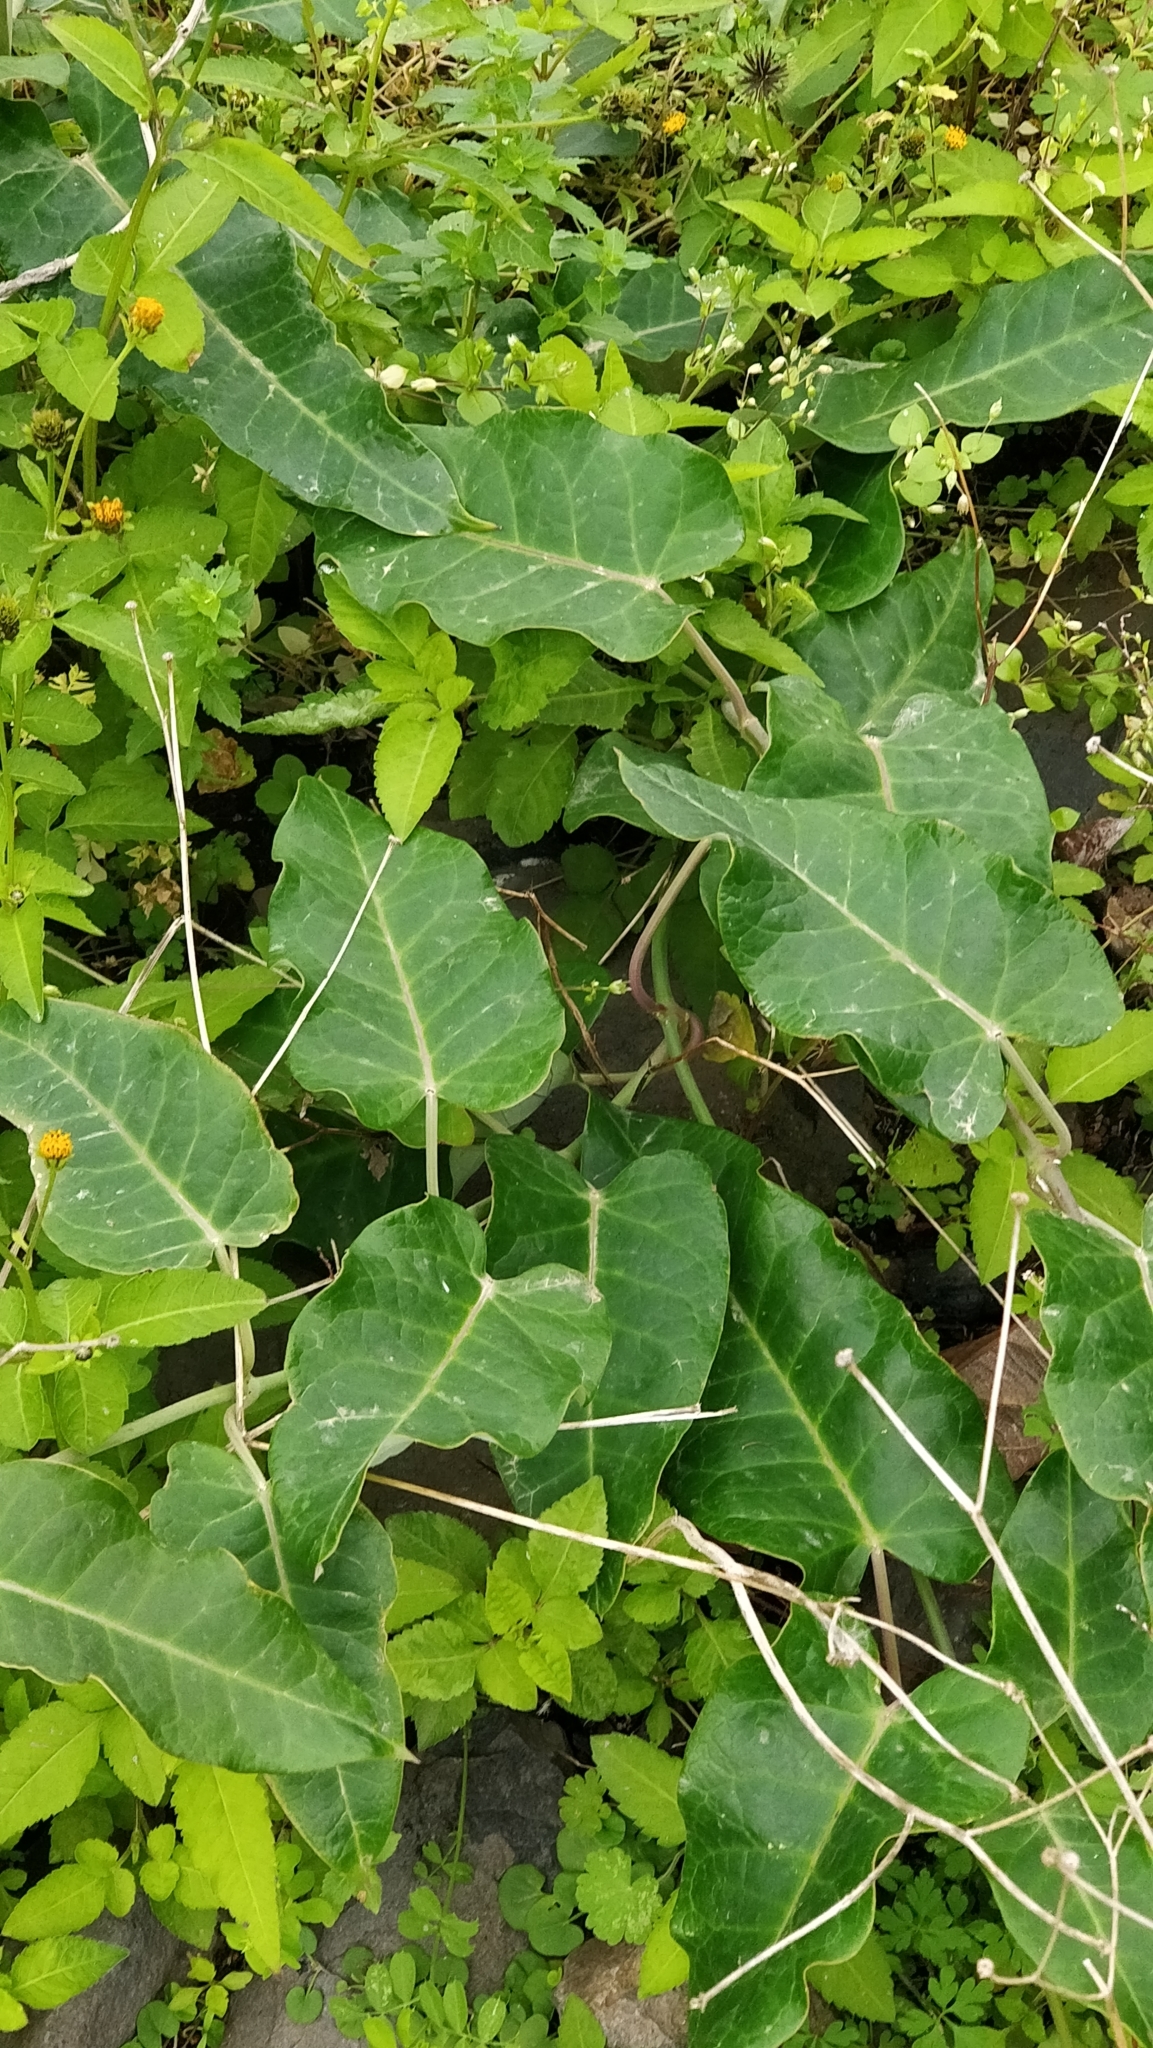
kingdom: Plantae
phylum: Tracheophyta
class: Magnoliopsida
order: Gentianales
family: Apocynaceae
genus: Araujia
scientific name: Araujia sericifera
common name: White bladderflower
